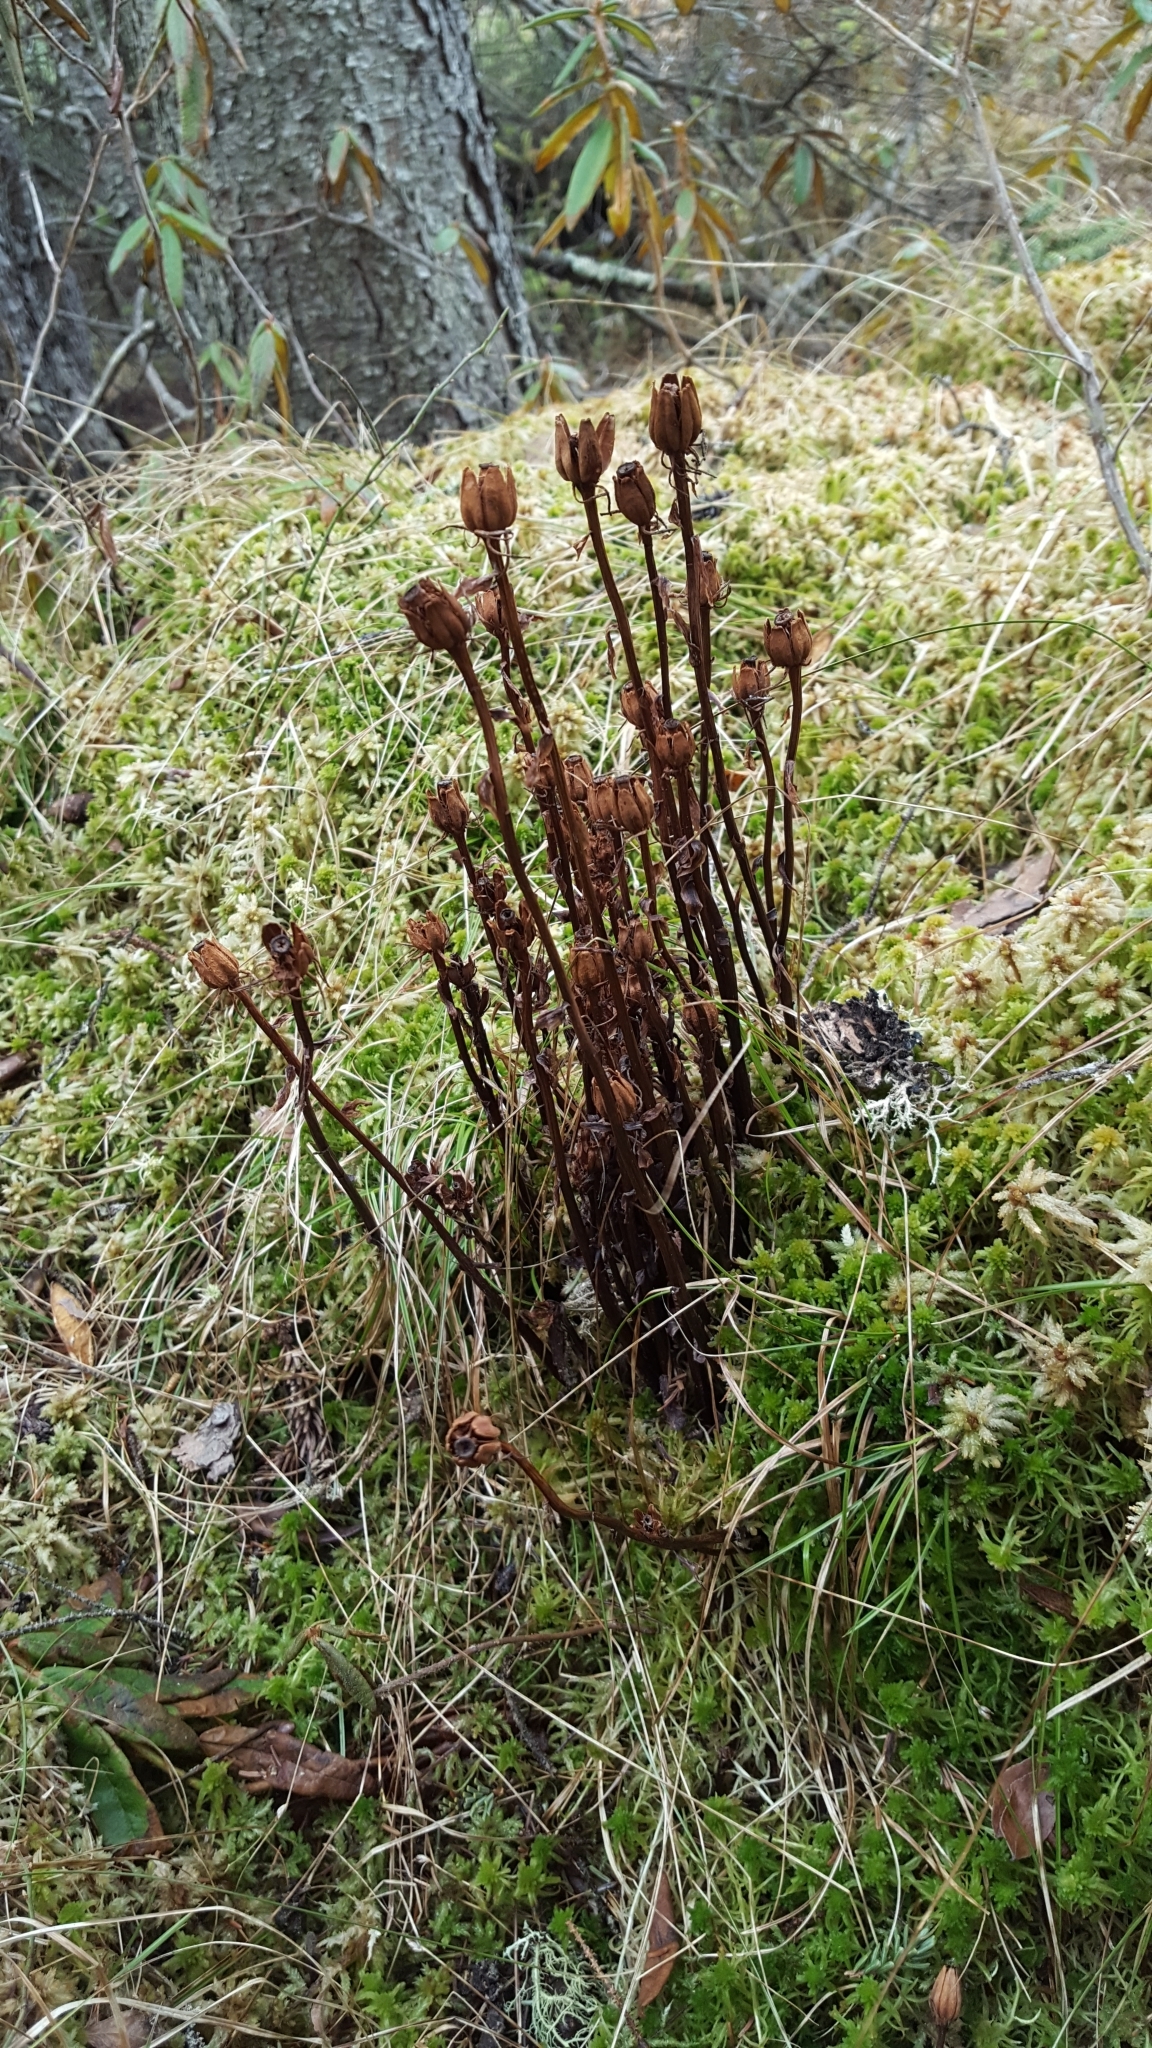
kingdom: Plantae
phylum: Tracheophyta
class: Magnoliopsida
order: Ericales
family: Ericaceae
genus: Monotropa
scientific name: Monotropa uniflora
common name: Convulsion root
